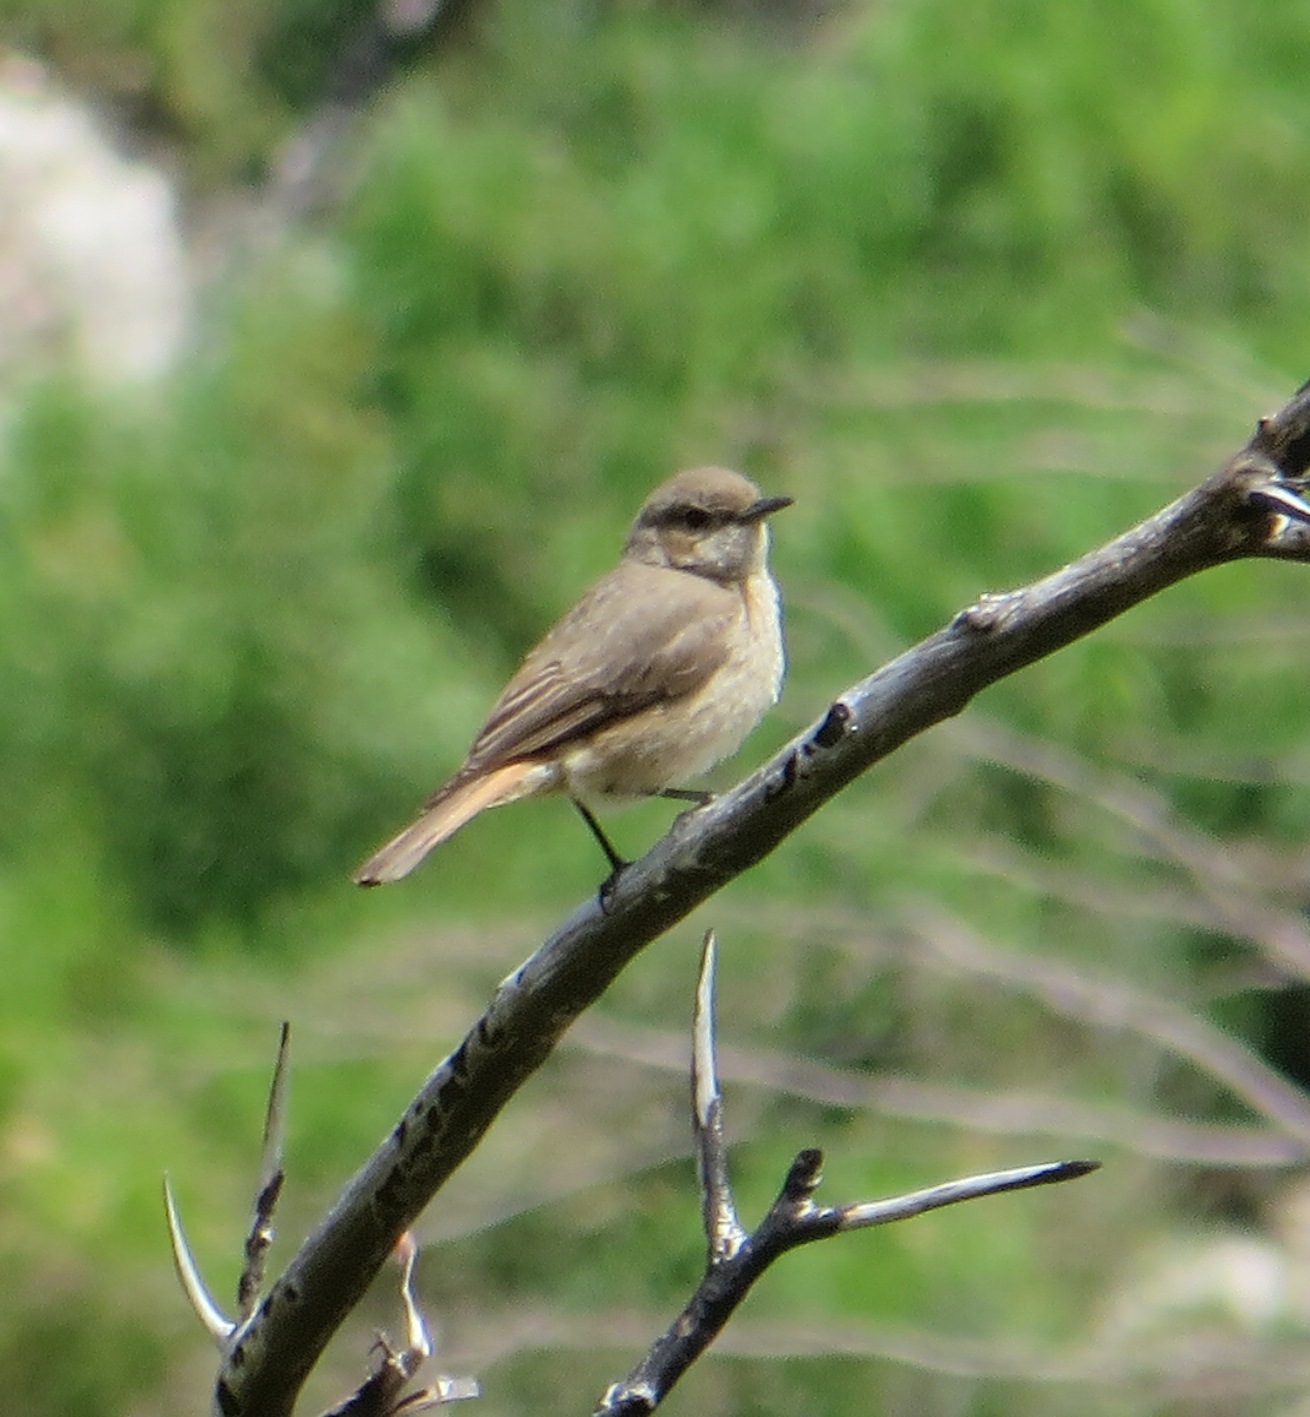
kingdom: Animalia
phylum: Chordata
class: Aves
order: Passeriformes
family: Muscicapidae
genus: Oenanthe
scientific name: Oenanthe familiaris
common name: Familiar chat
